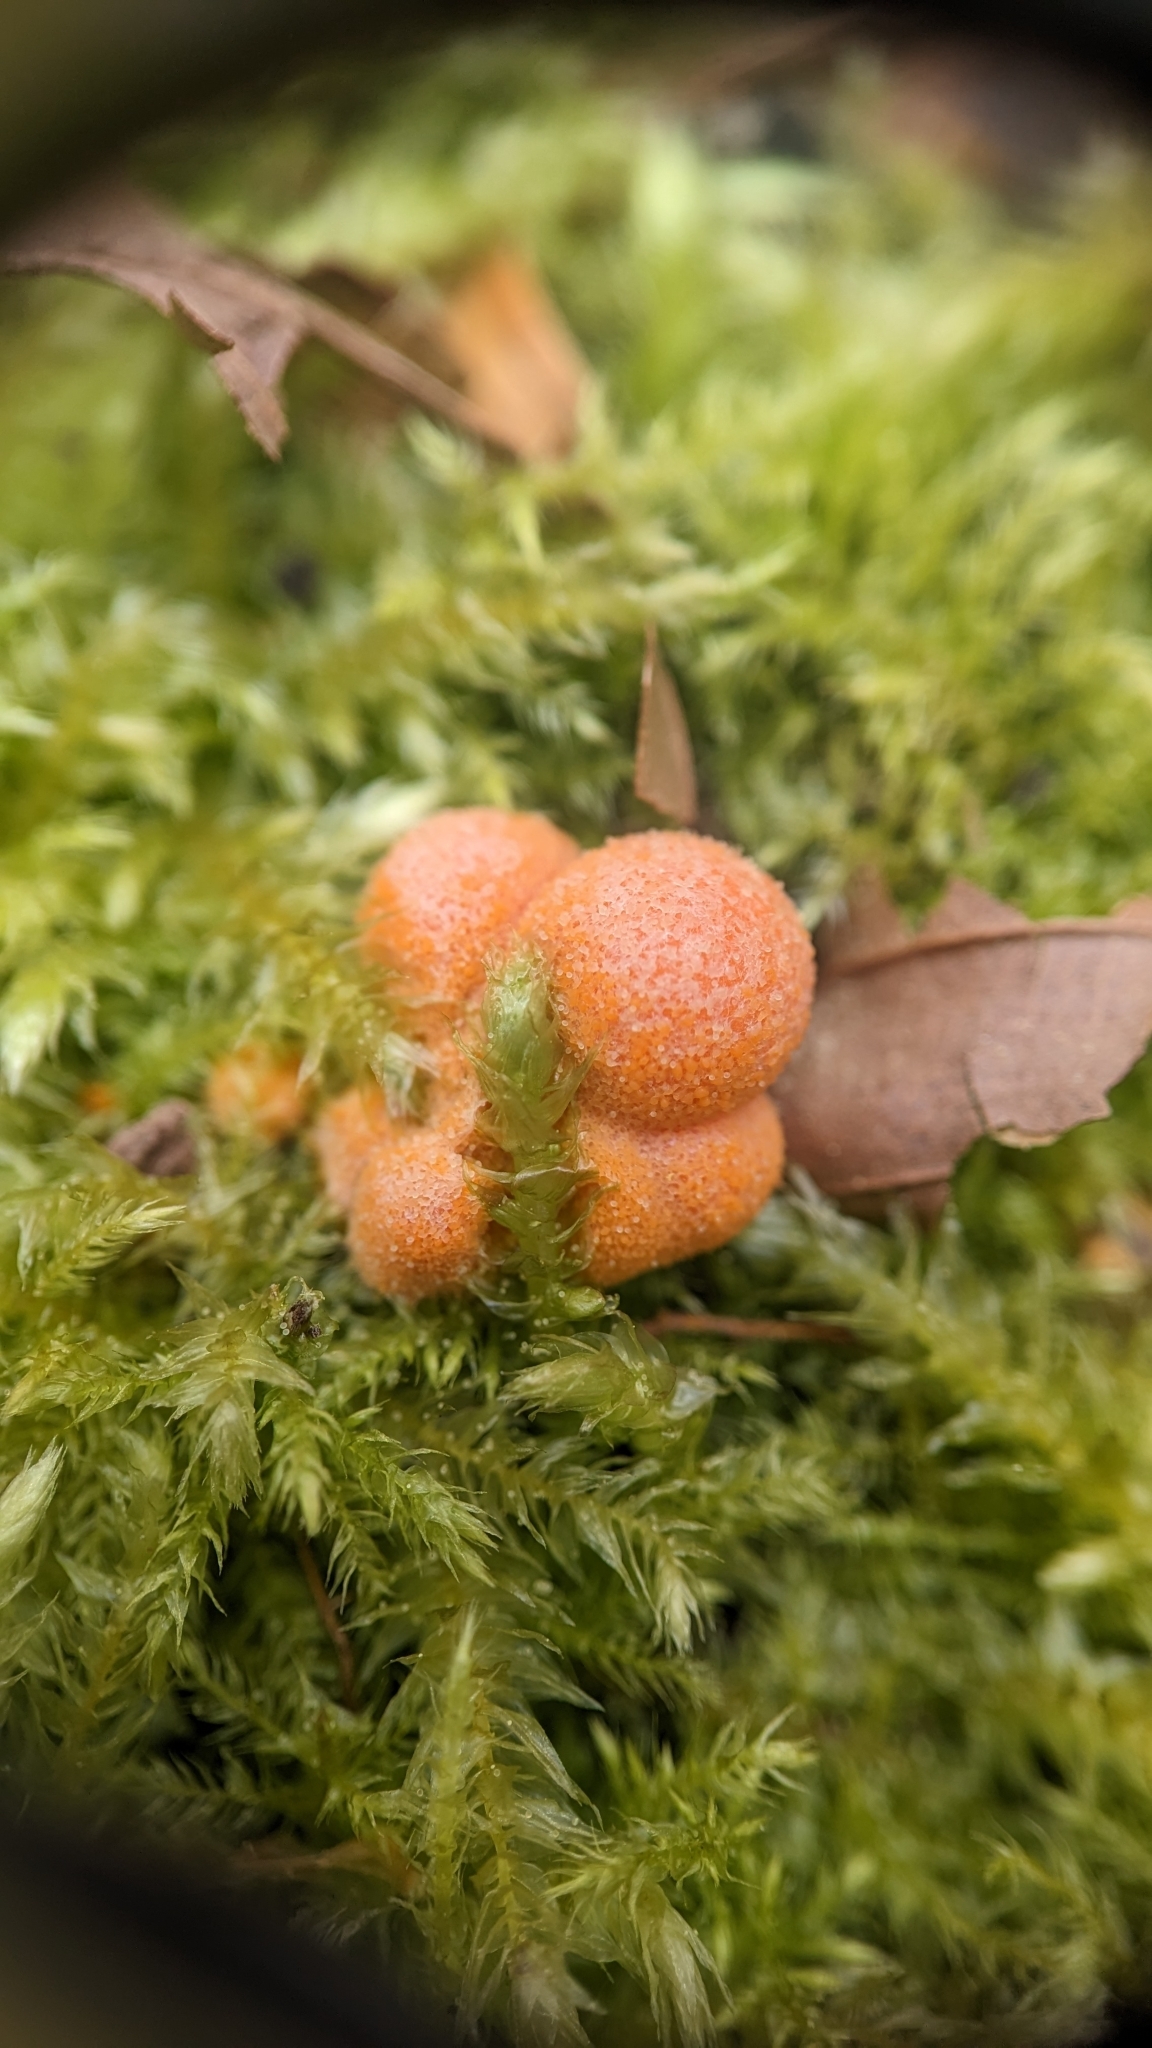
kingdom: Protozoa
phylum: Mycetozoa
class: Myxomycetes
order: Cribrariales
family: Tubiferaceae
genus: Lycogala
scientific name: Lycogala epidendrum
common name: Wolf's milk
